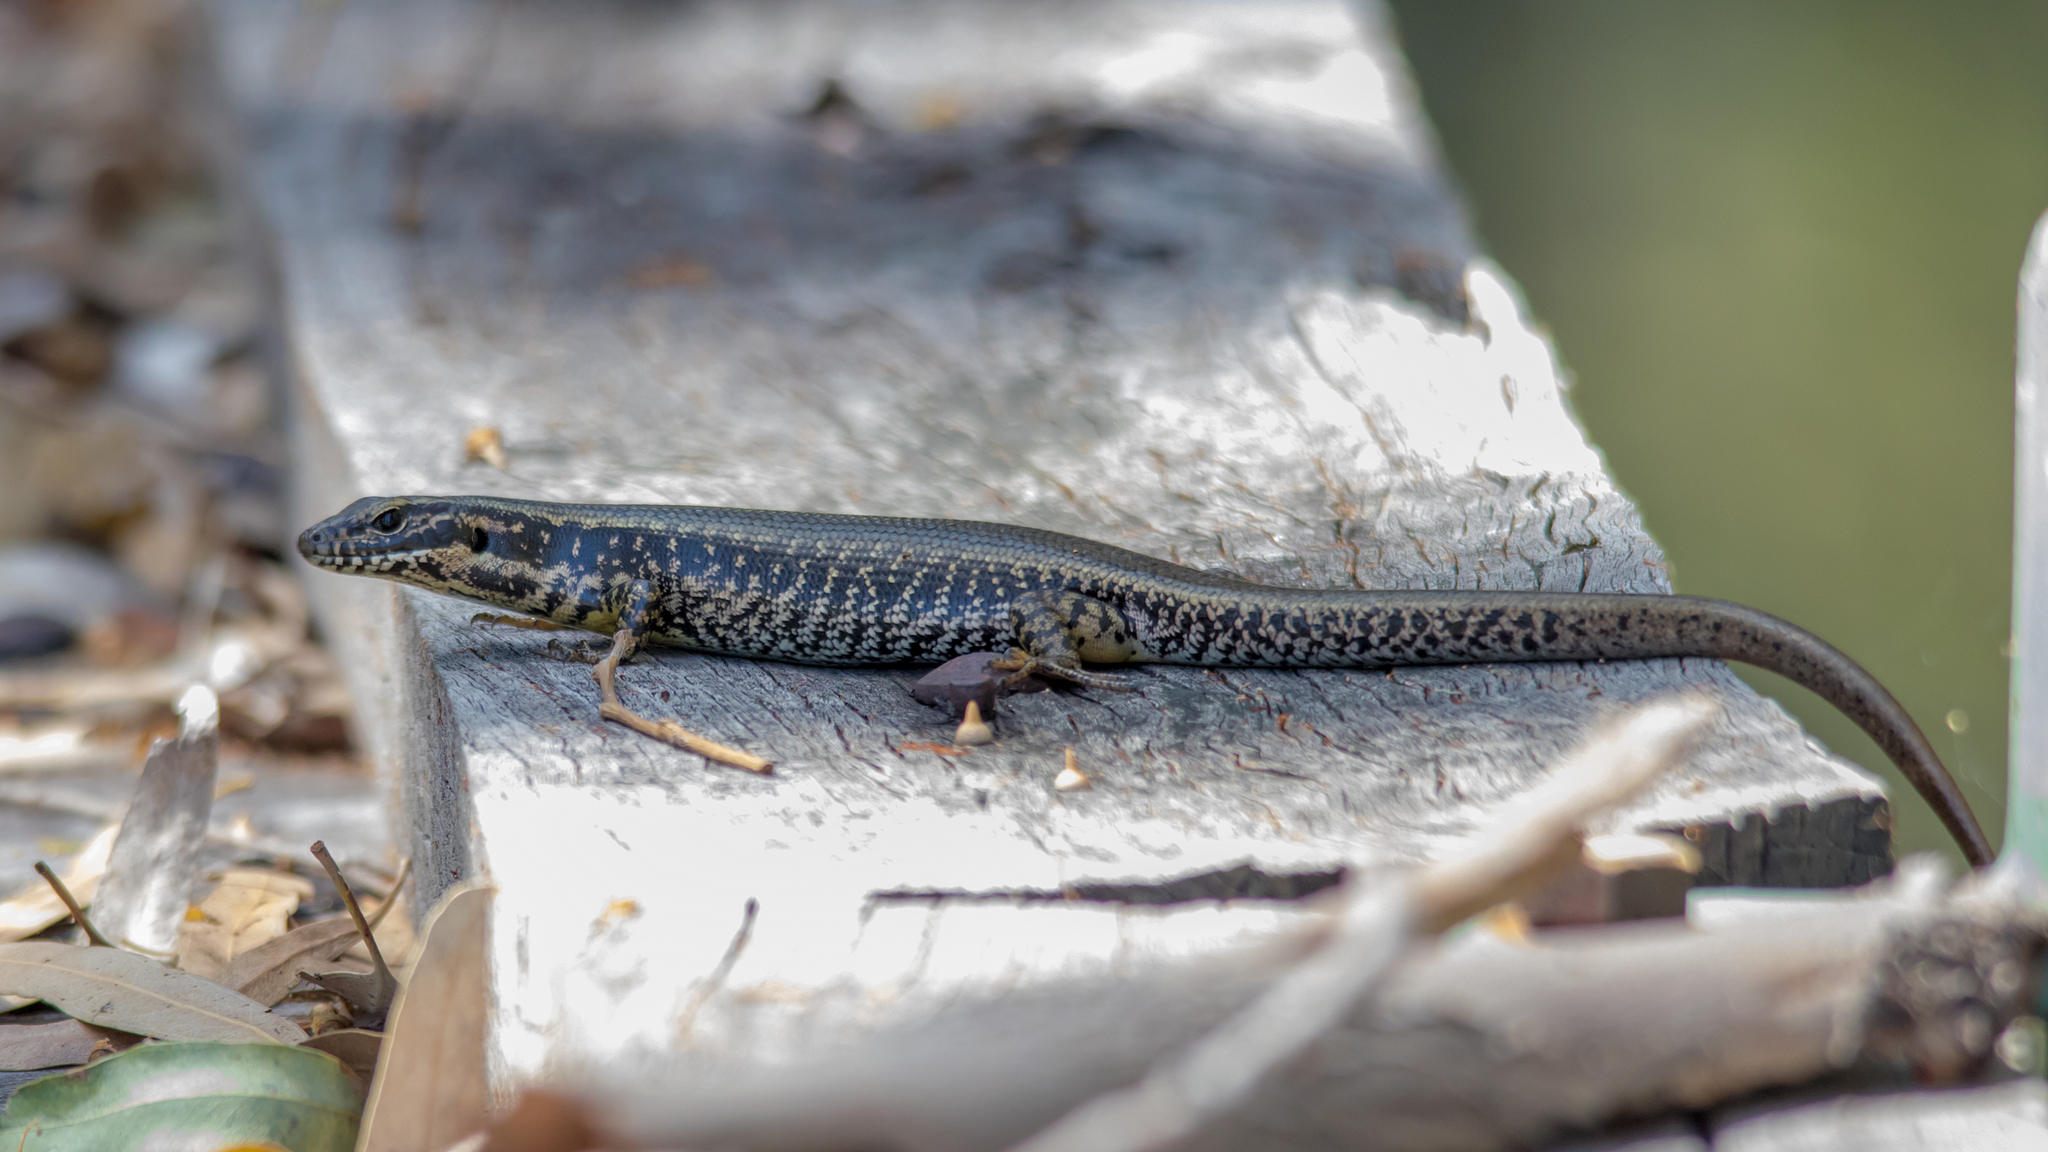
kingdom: Animalia
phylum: Chordata
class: Squamata
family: Scincidae
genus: Eulamprus
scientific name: Eulamprus heatwolei
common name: Warm-temperate water-skink
